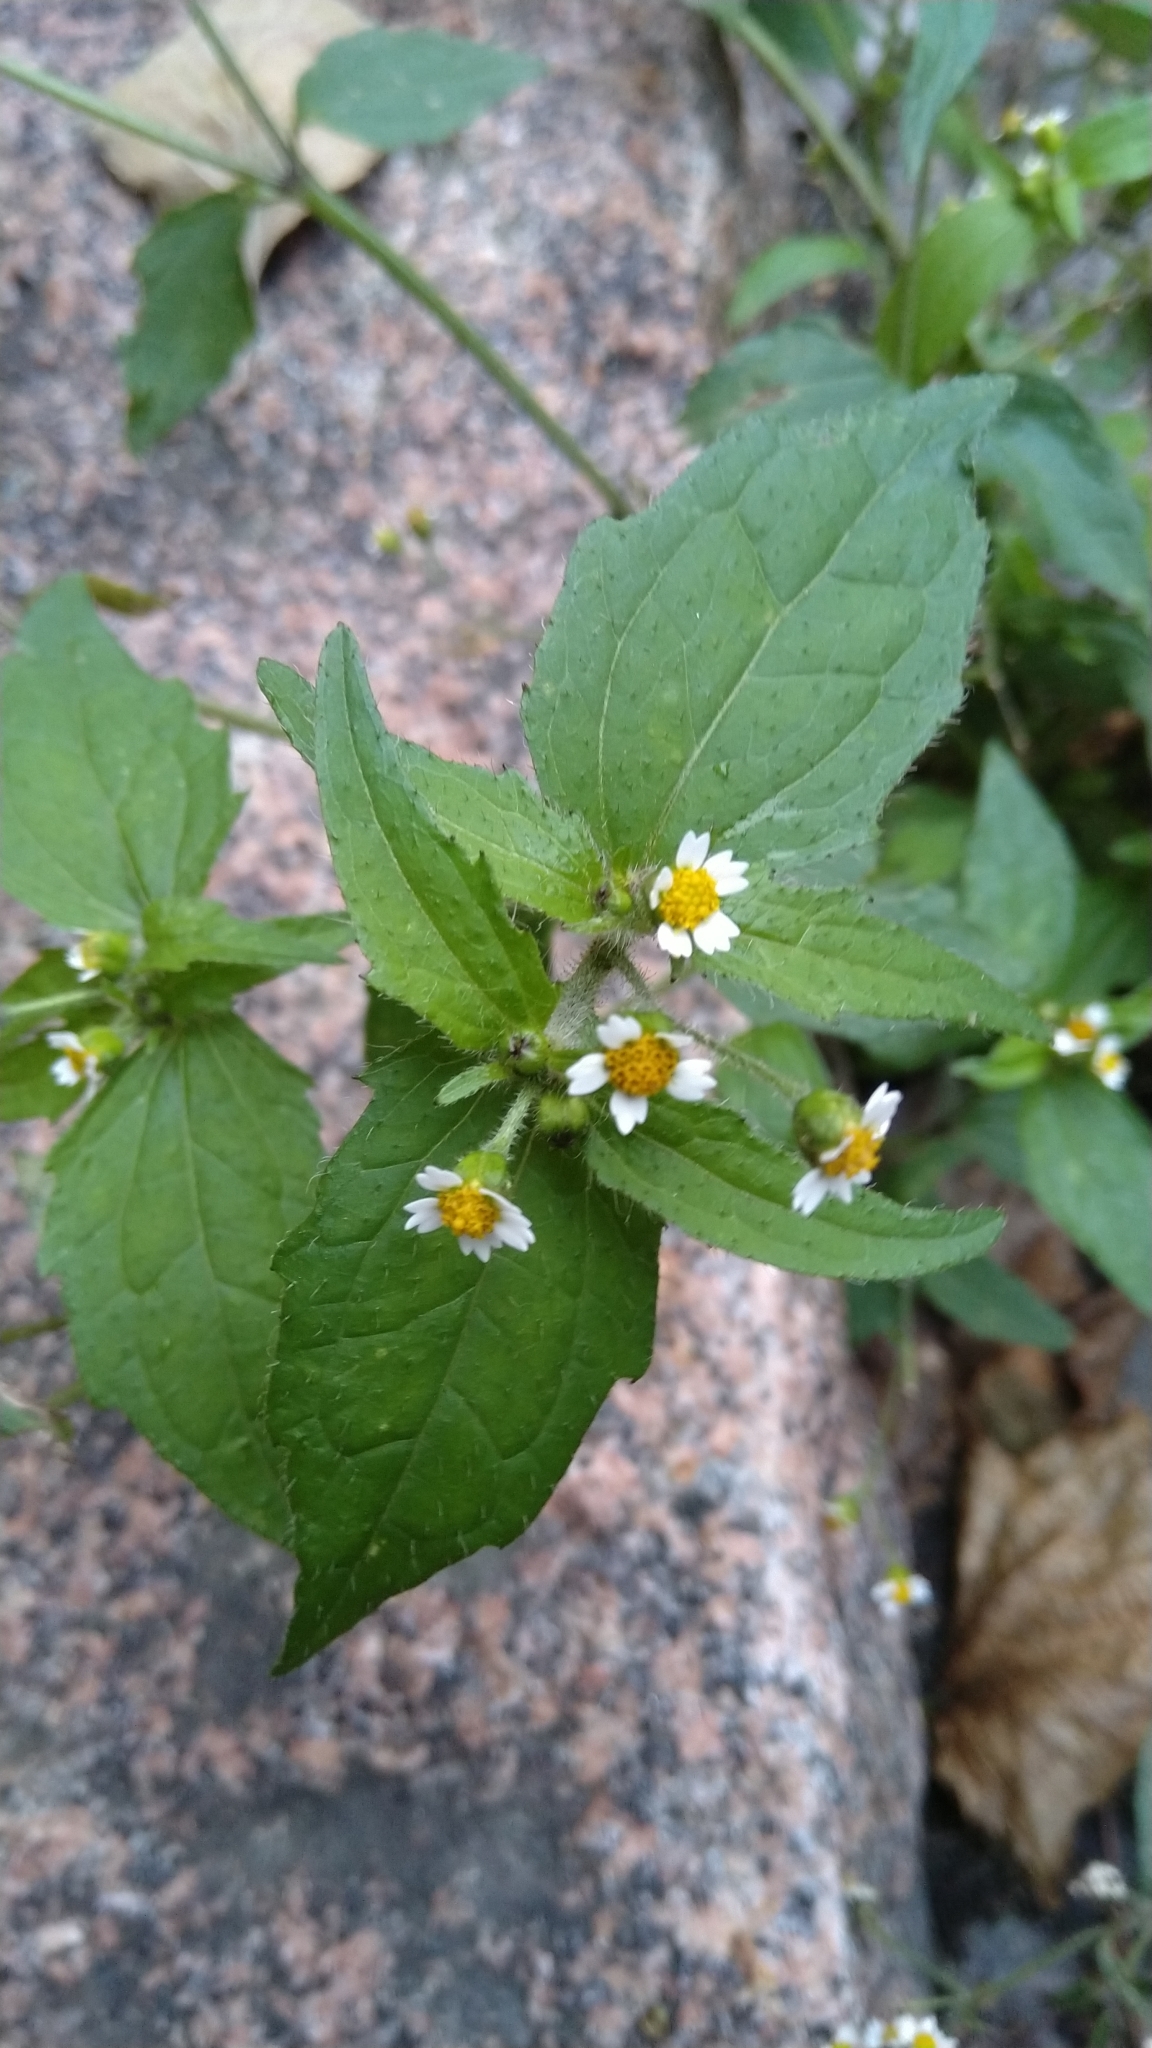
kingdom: Plantae
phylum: Tracheophyta
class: Magnoliopsida
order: Asterales
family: Asteraceae
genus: Galinsoga
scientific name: Galinsoga quadriradiata
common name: Shaggy soldier
